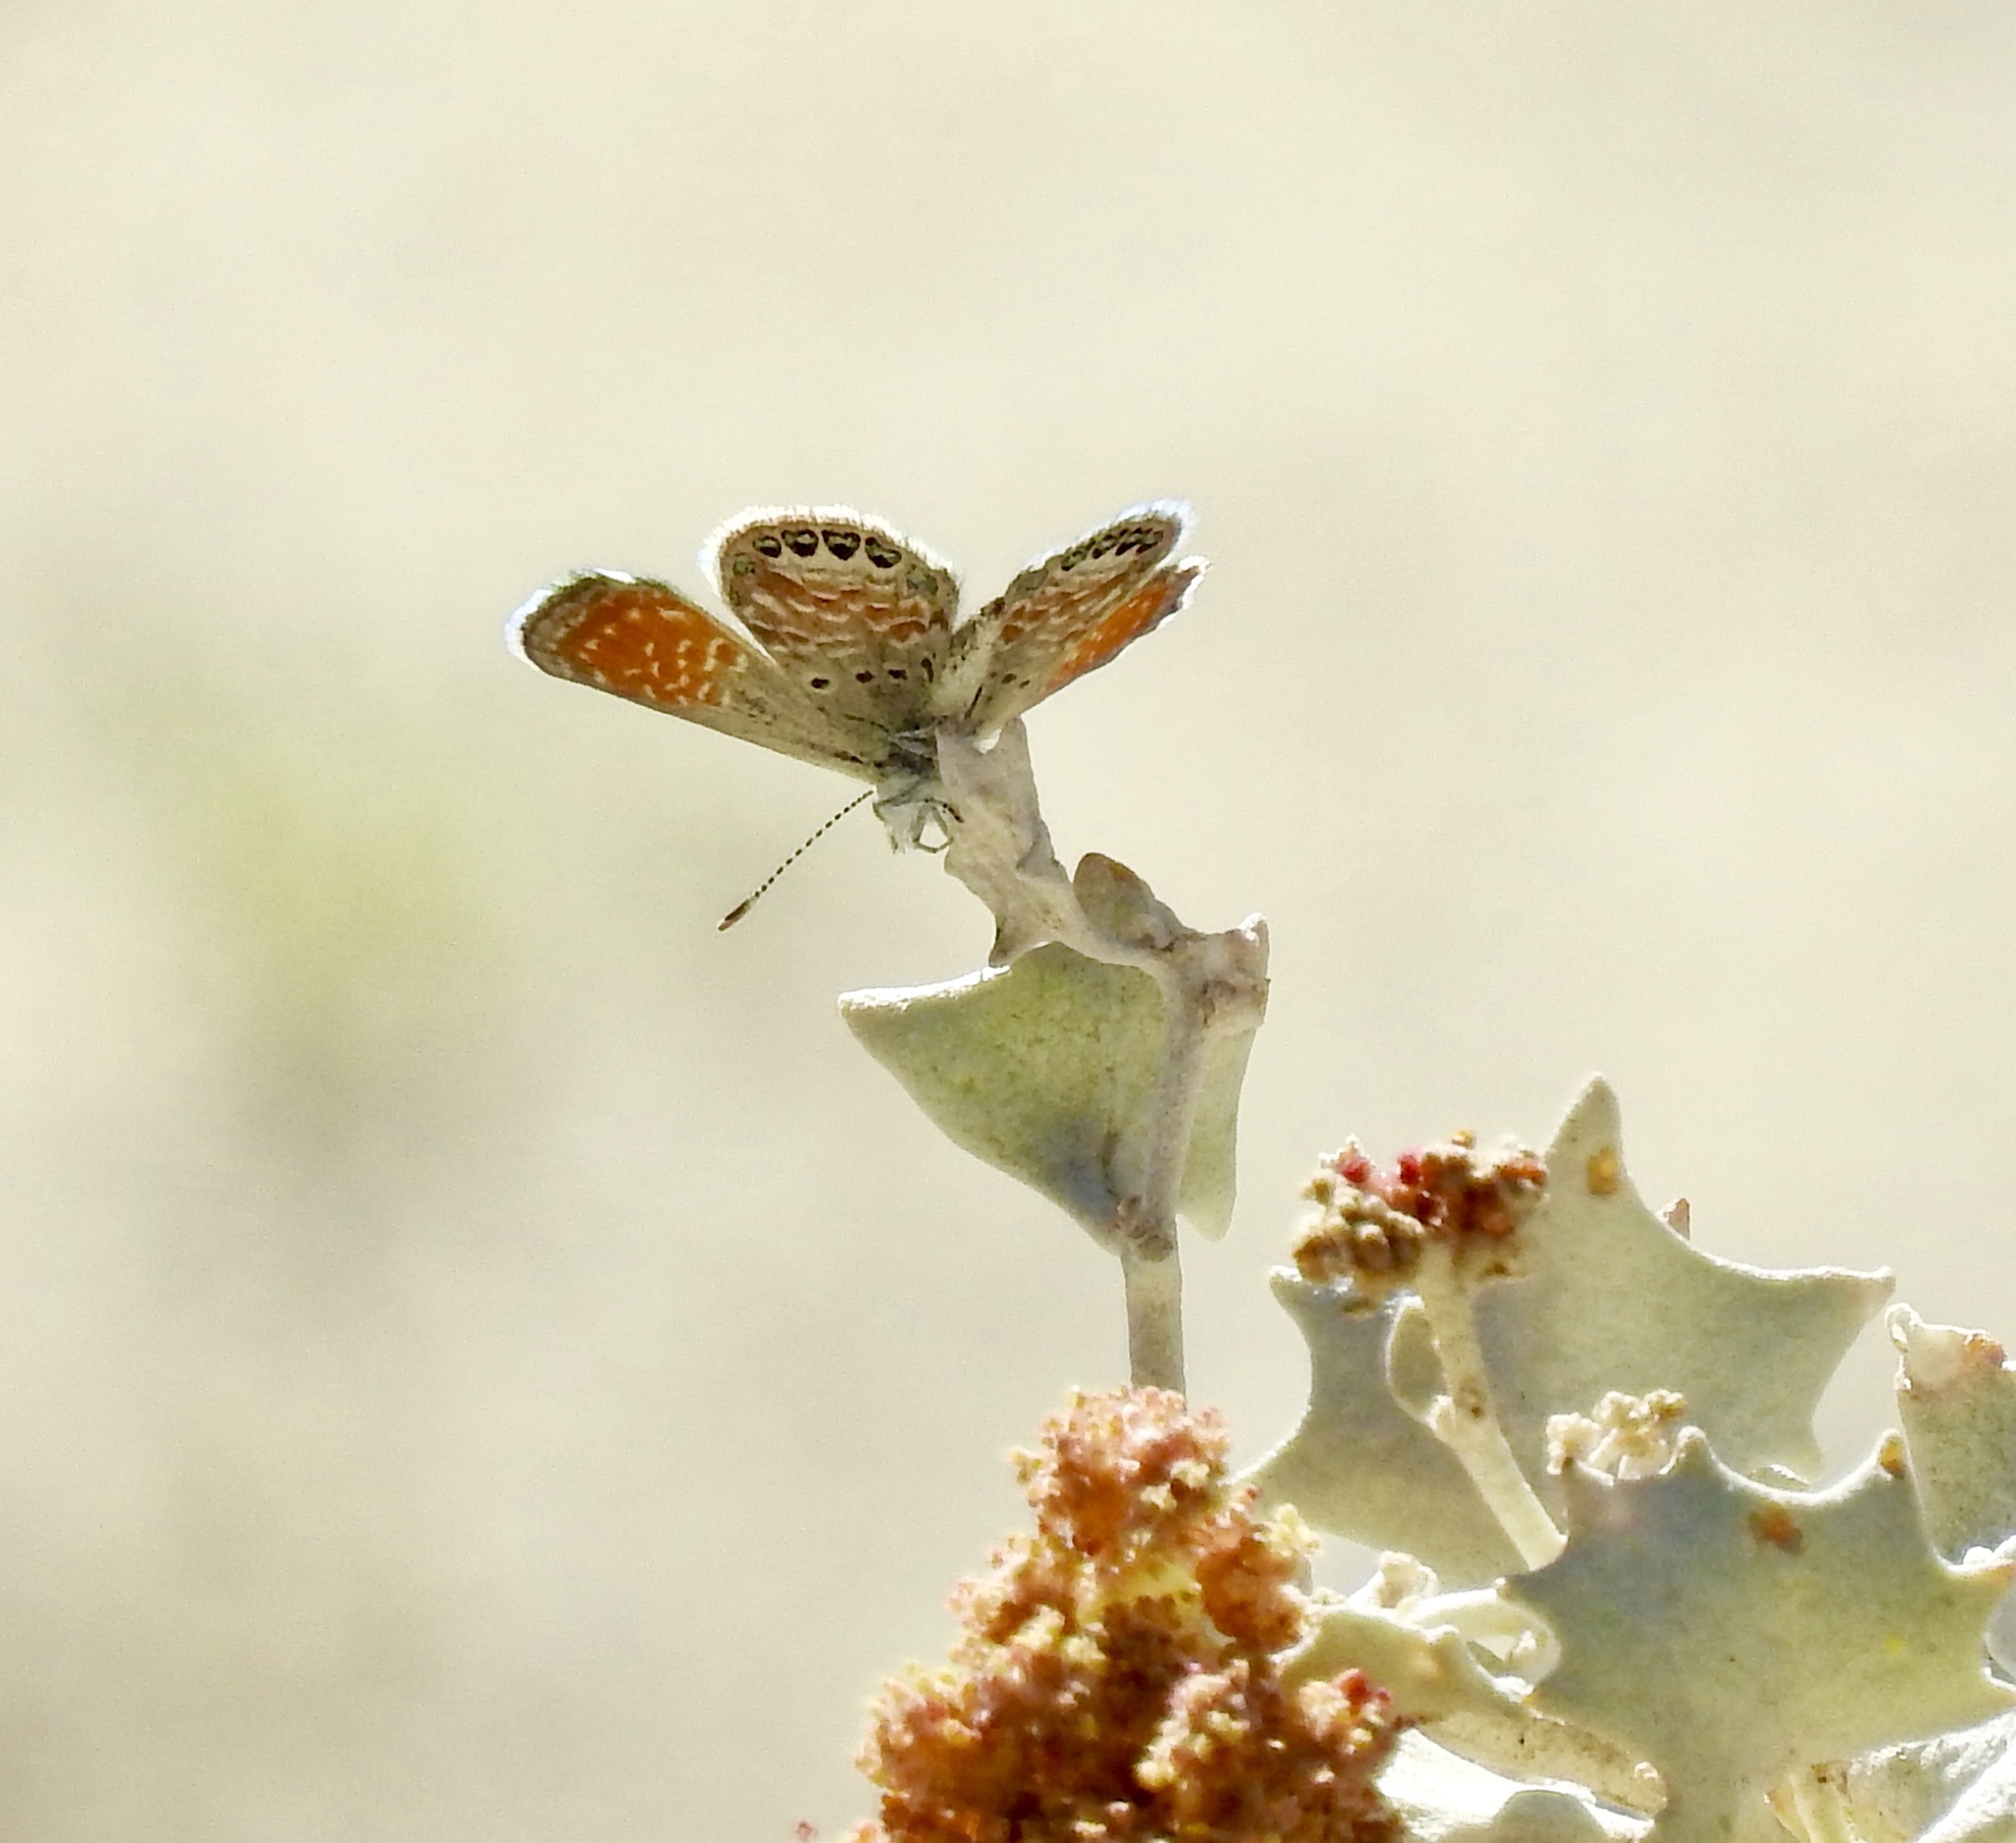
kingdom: Animalia
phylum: Arthropoda
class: Insecta
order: Lepidoptera
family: Lycaenidae
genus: Brephidium
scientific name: Brephidium exilis
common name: Pygmy blue
